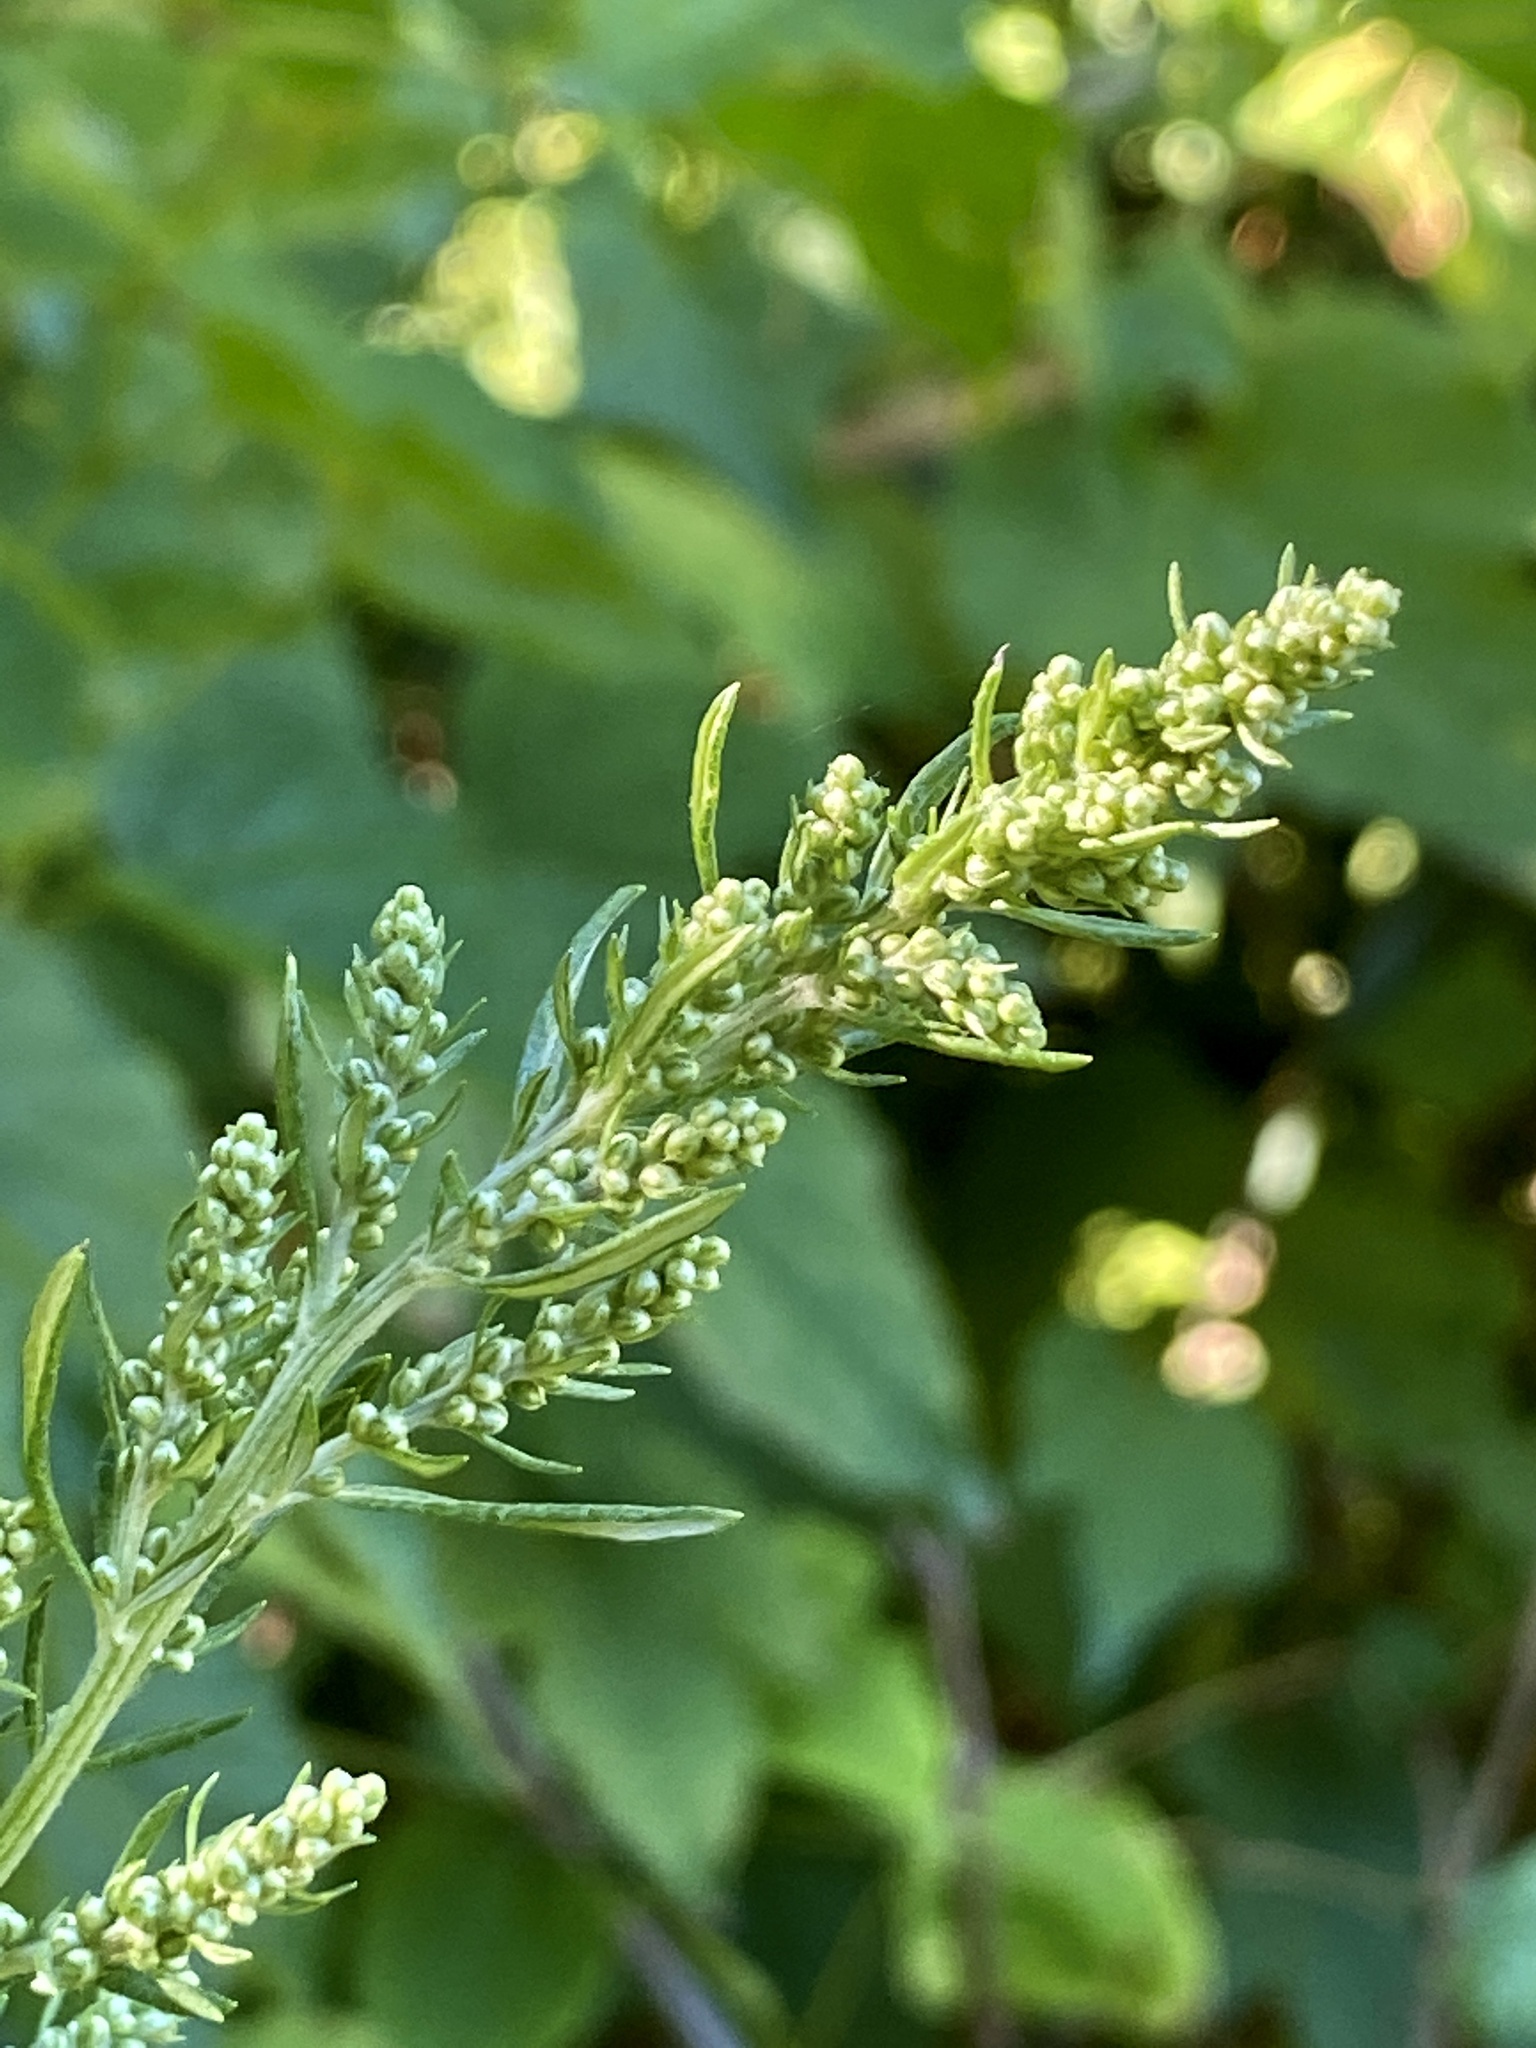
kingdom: Plantae
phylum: Tracheophyta
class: Magnoliopsida
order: Asterales
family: Asteraceae
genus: Artemisia
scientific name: Artemisia vulgaris
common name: Mugwort
